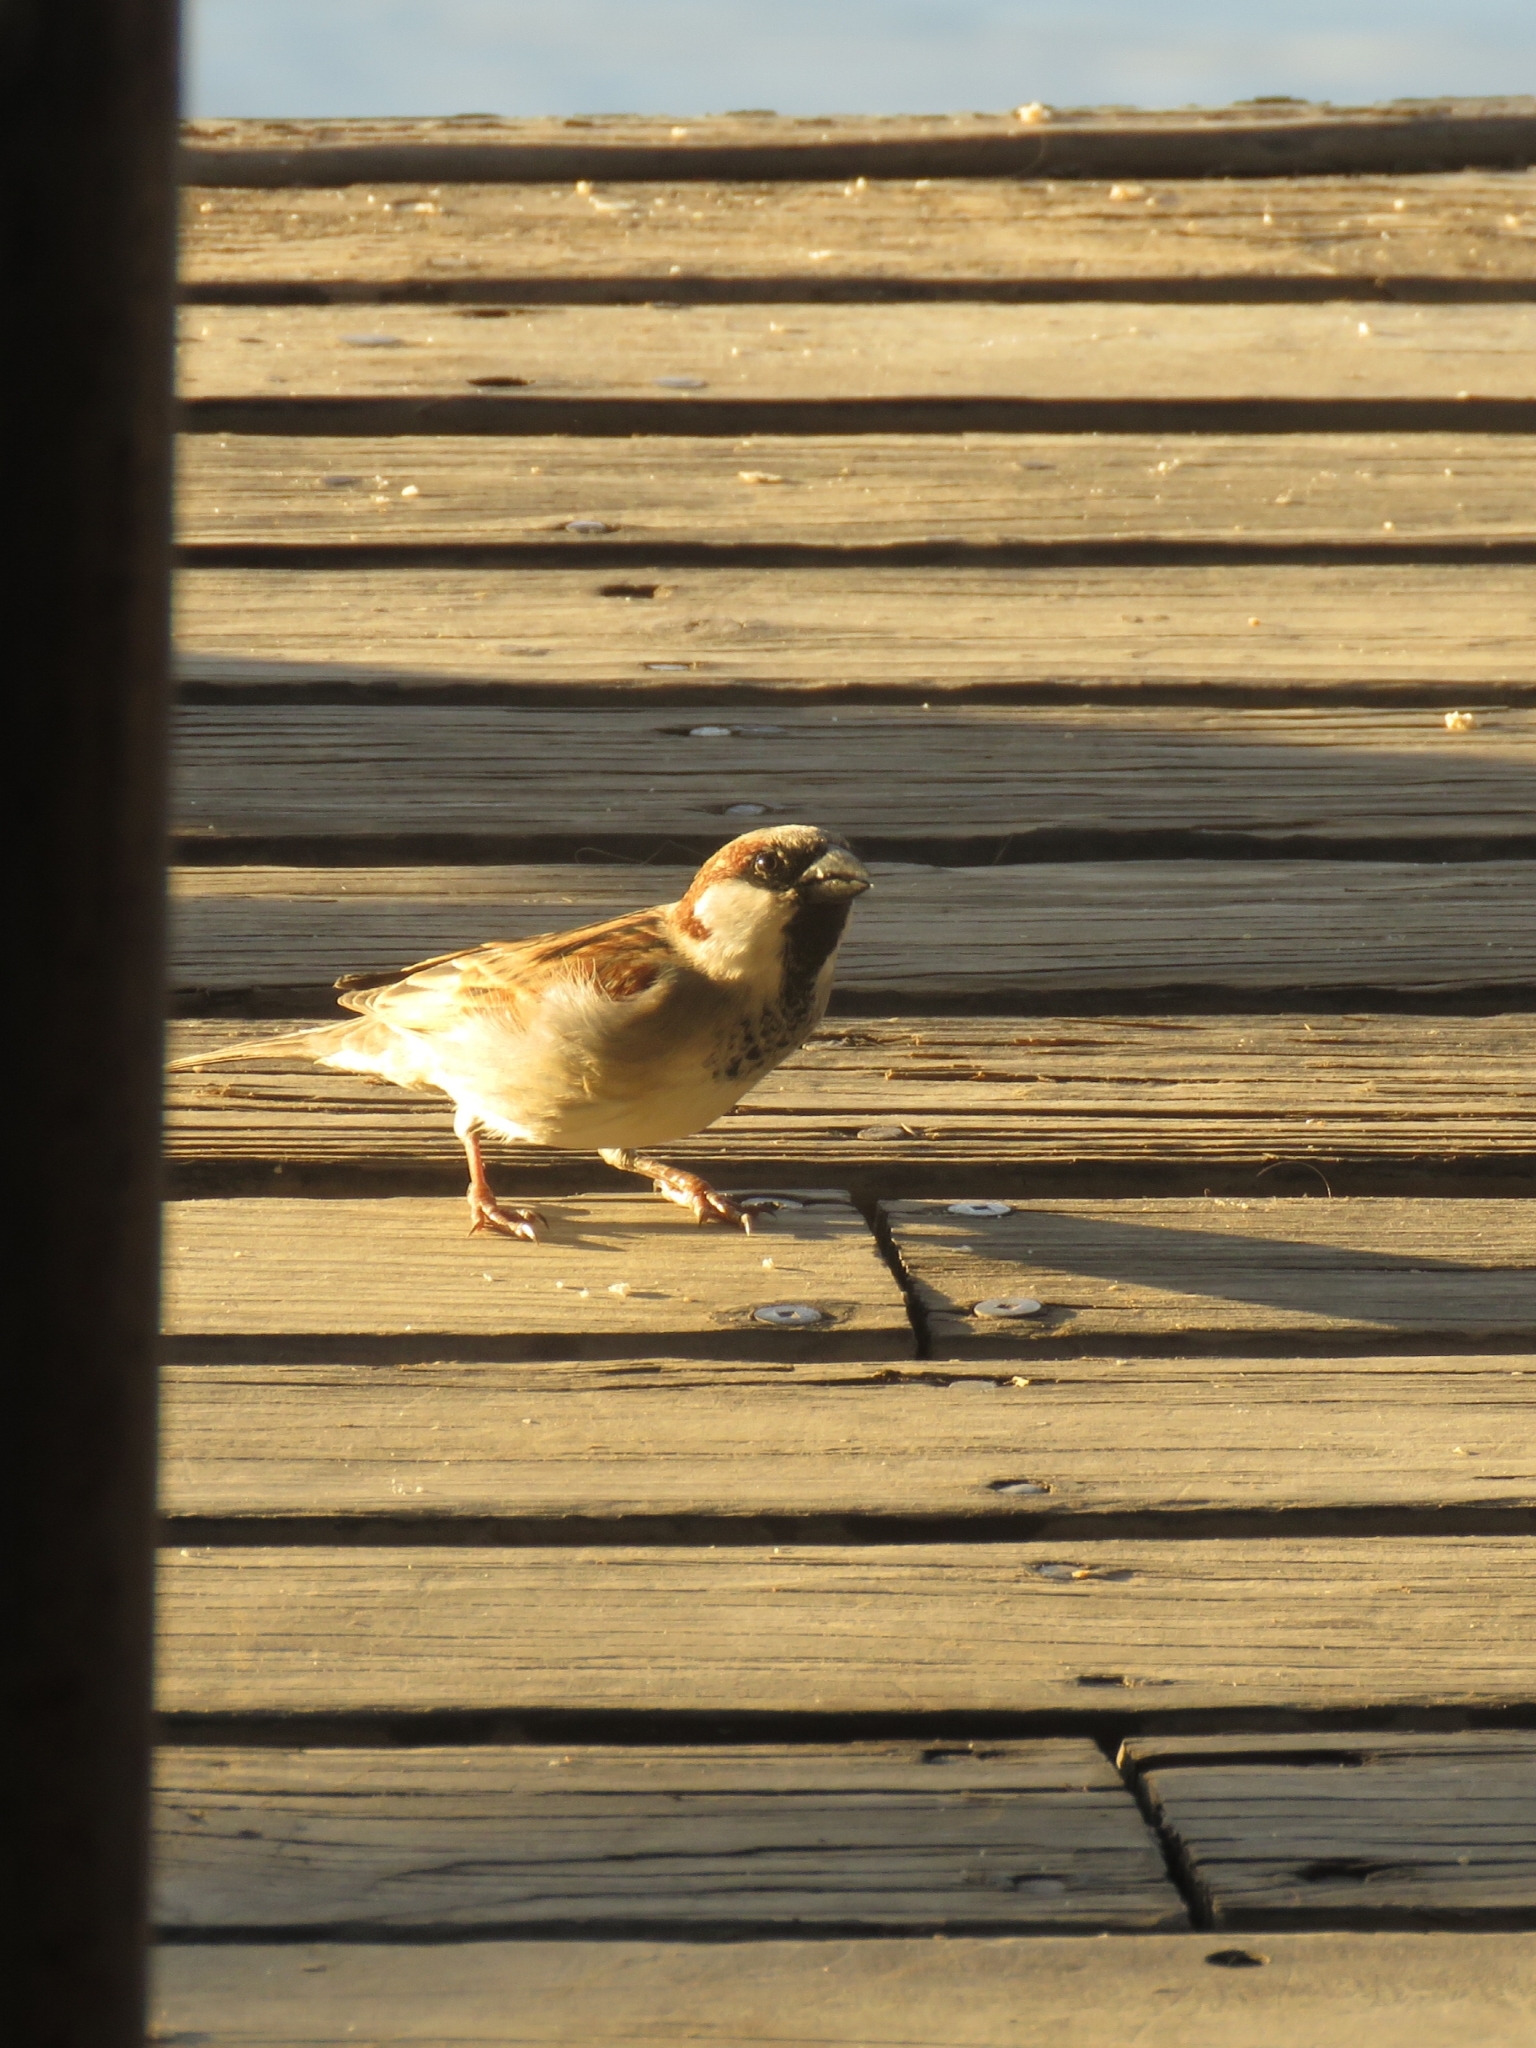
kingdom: Animalia
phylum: Chordata
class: Aves
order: Passeriformes
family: Passeridae
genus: Passer
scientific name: Passer domesticus
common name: House sparrow
